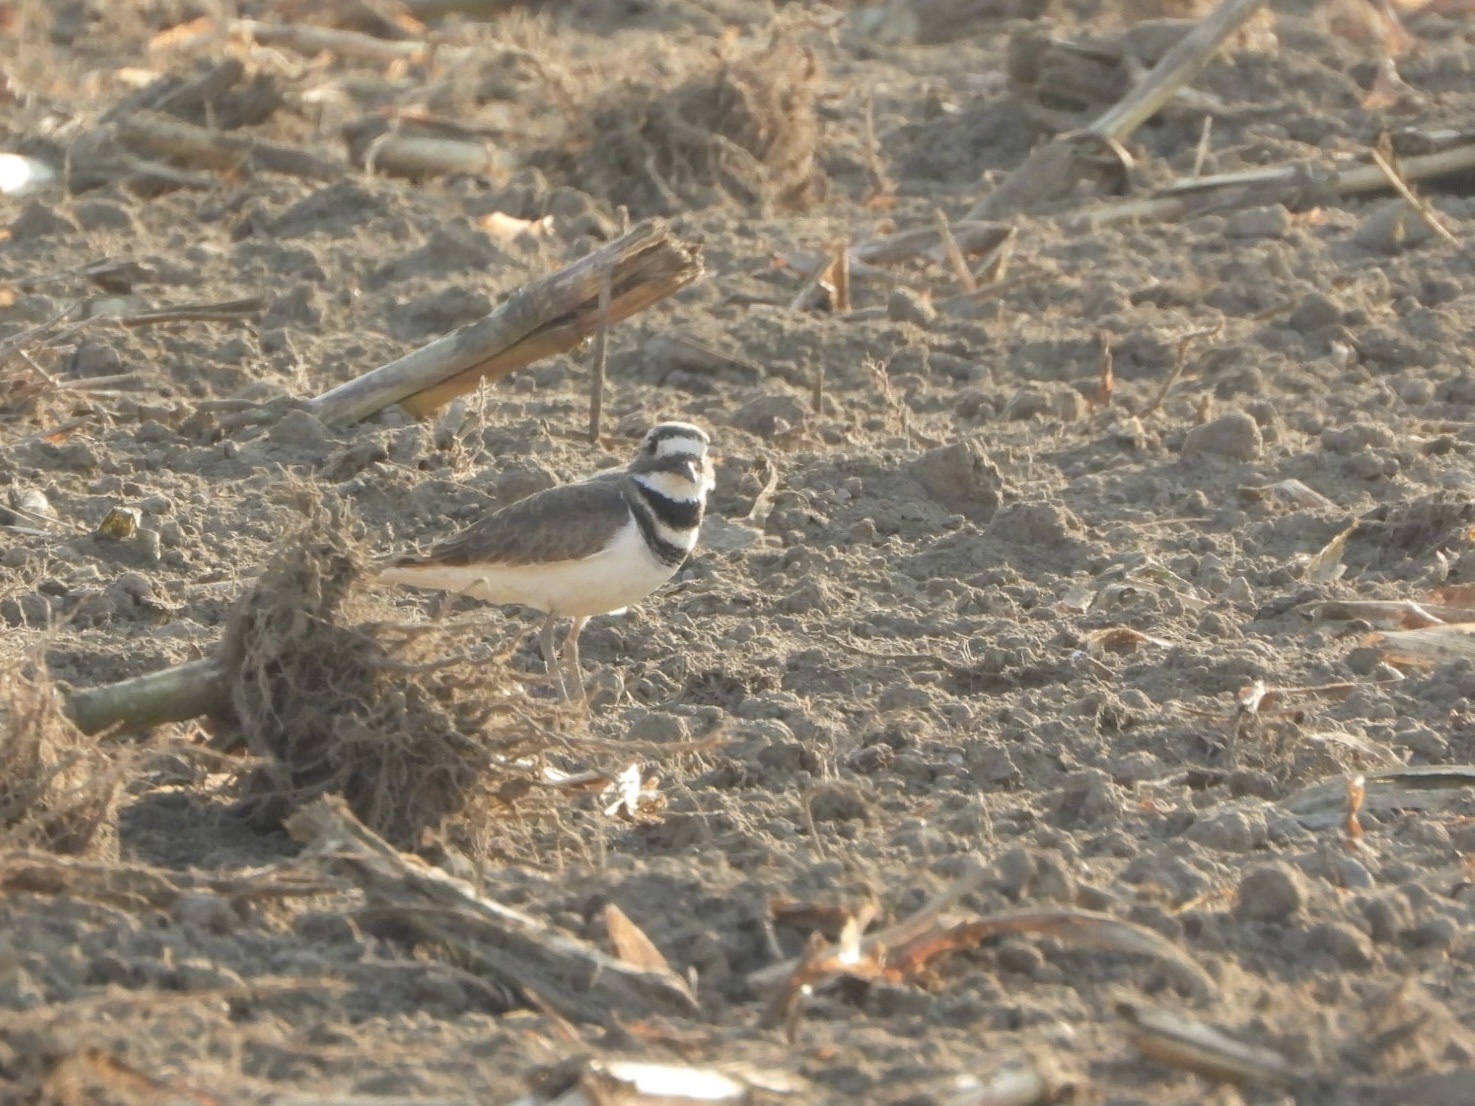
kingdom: Animalia
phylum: Chordata
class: Aves
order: Charadriiformes
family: Charadriidae
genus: Charadrius
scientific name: Charadrius vociferus
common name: Killdeer
